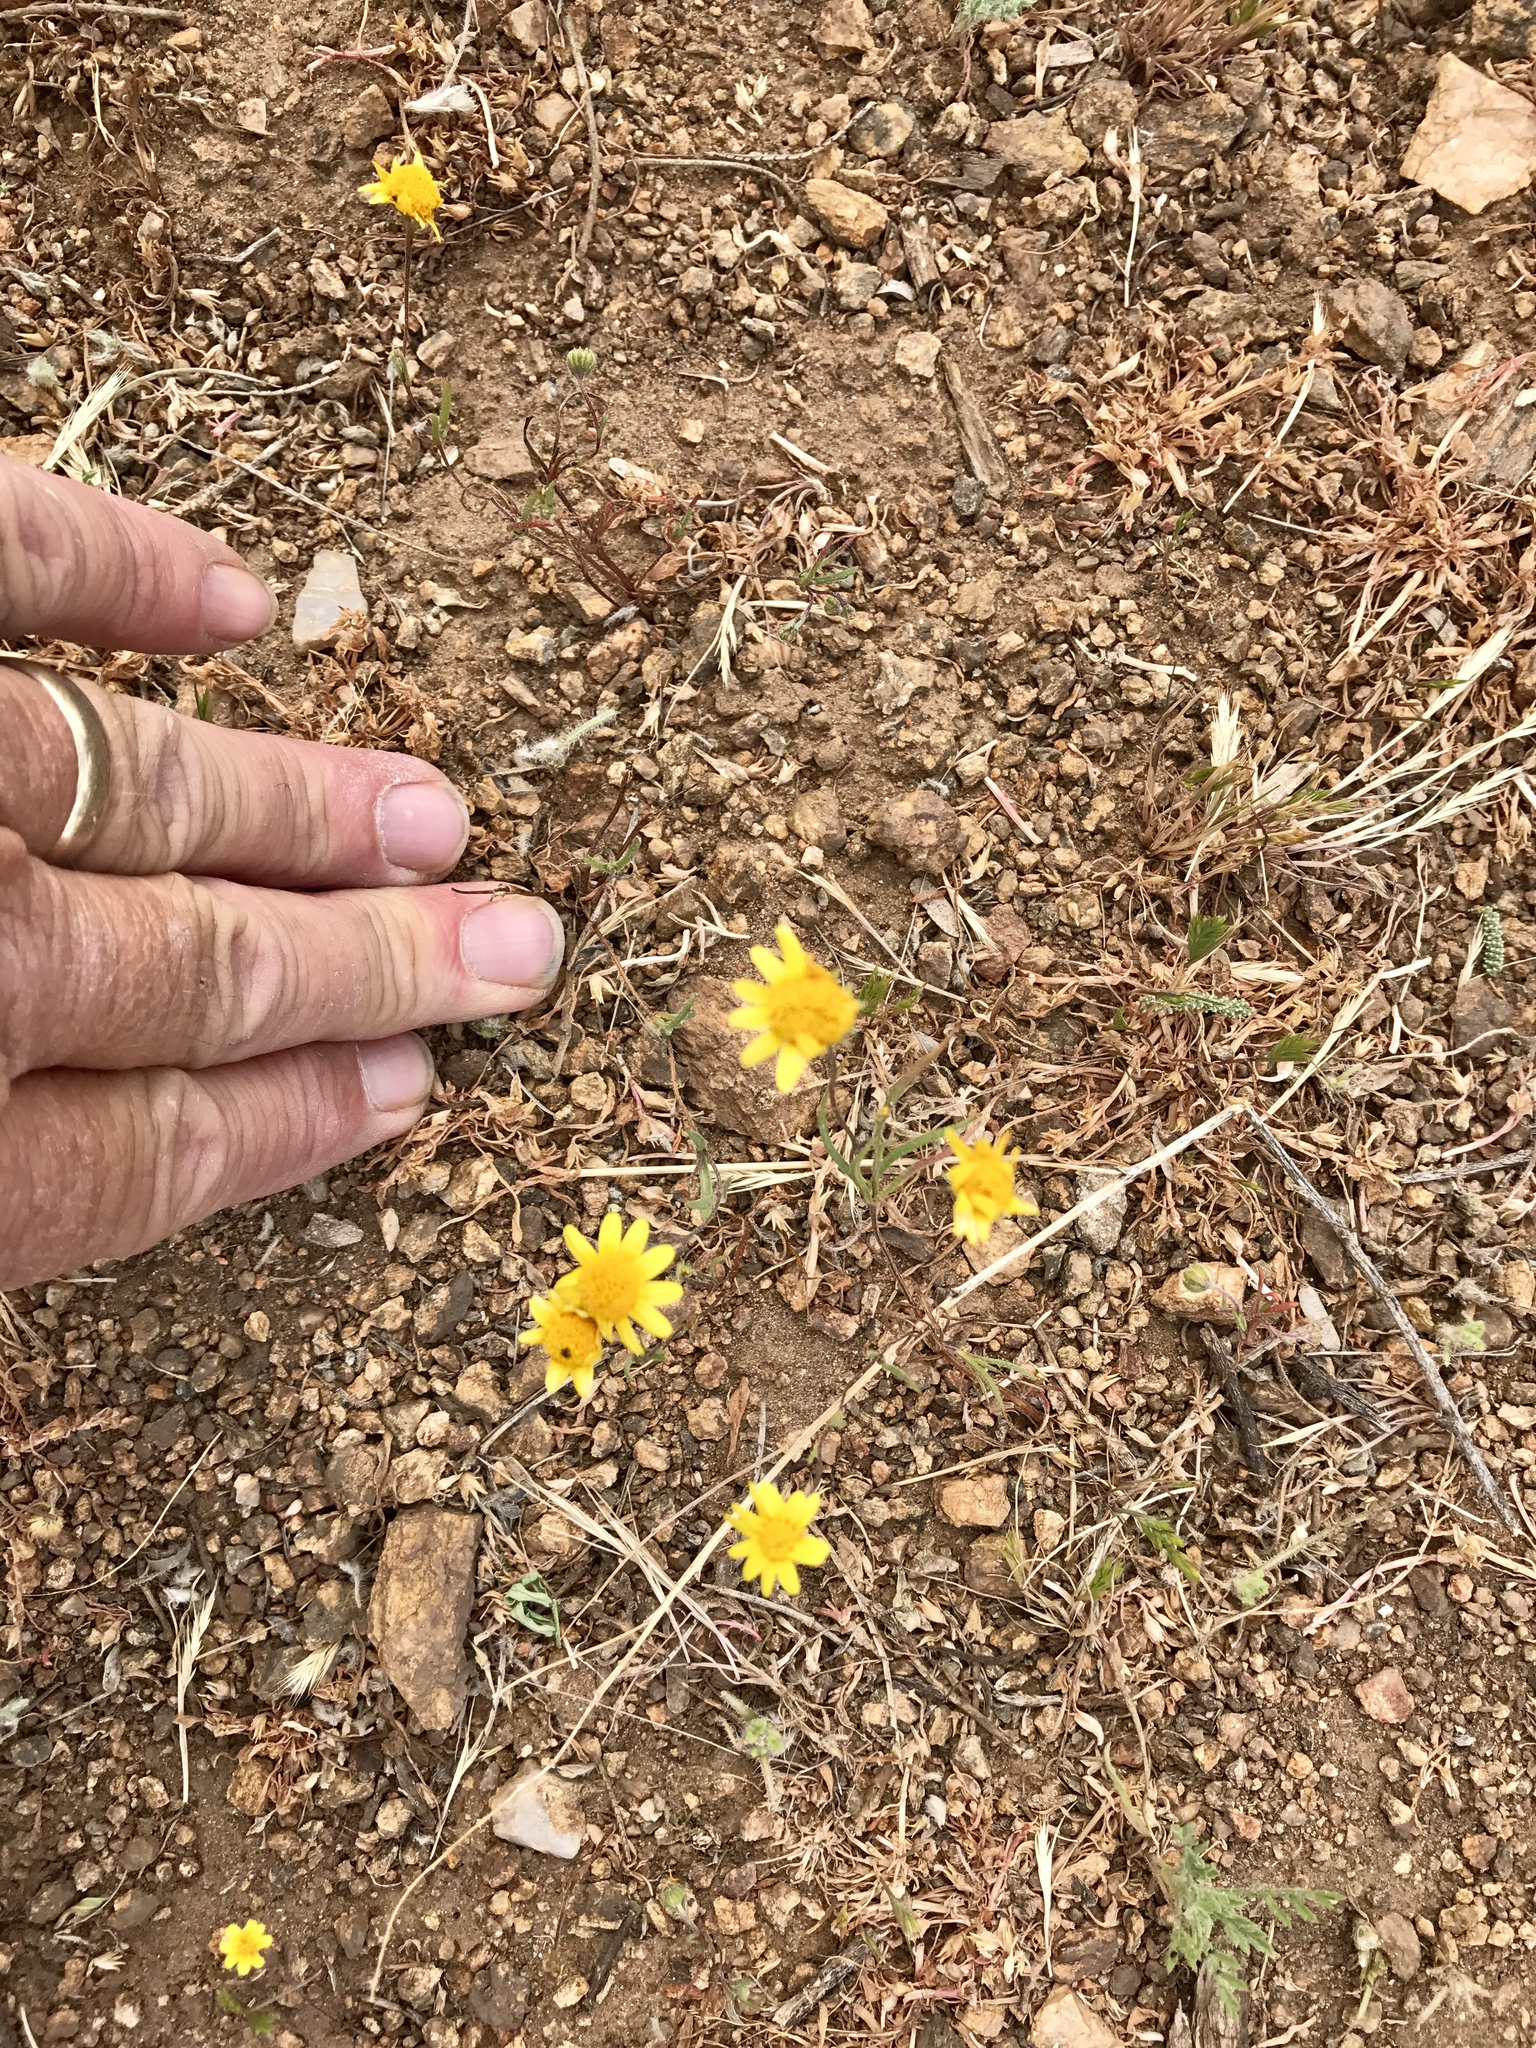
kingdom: Plantae
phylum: Tracheophyta
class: Magnoliopsida
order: Asterales
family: Asteraceae
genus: Lasthenia
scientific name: Lasthenia gracilis
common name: Common goldfields
